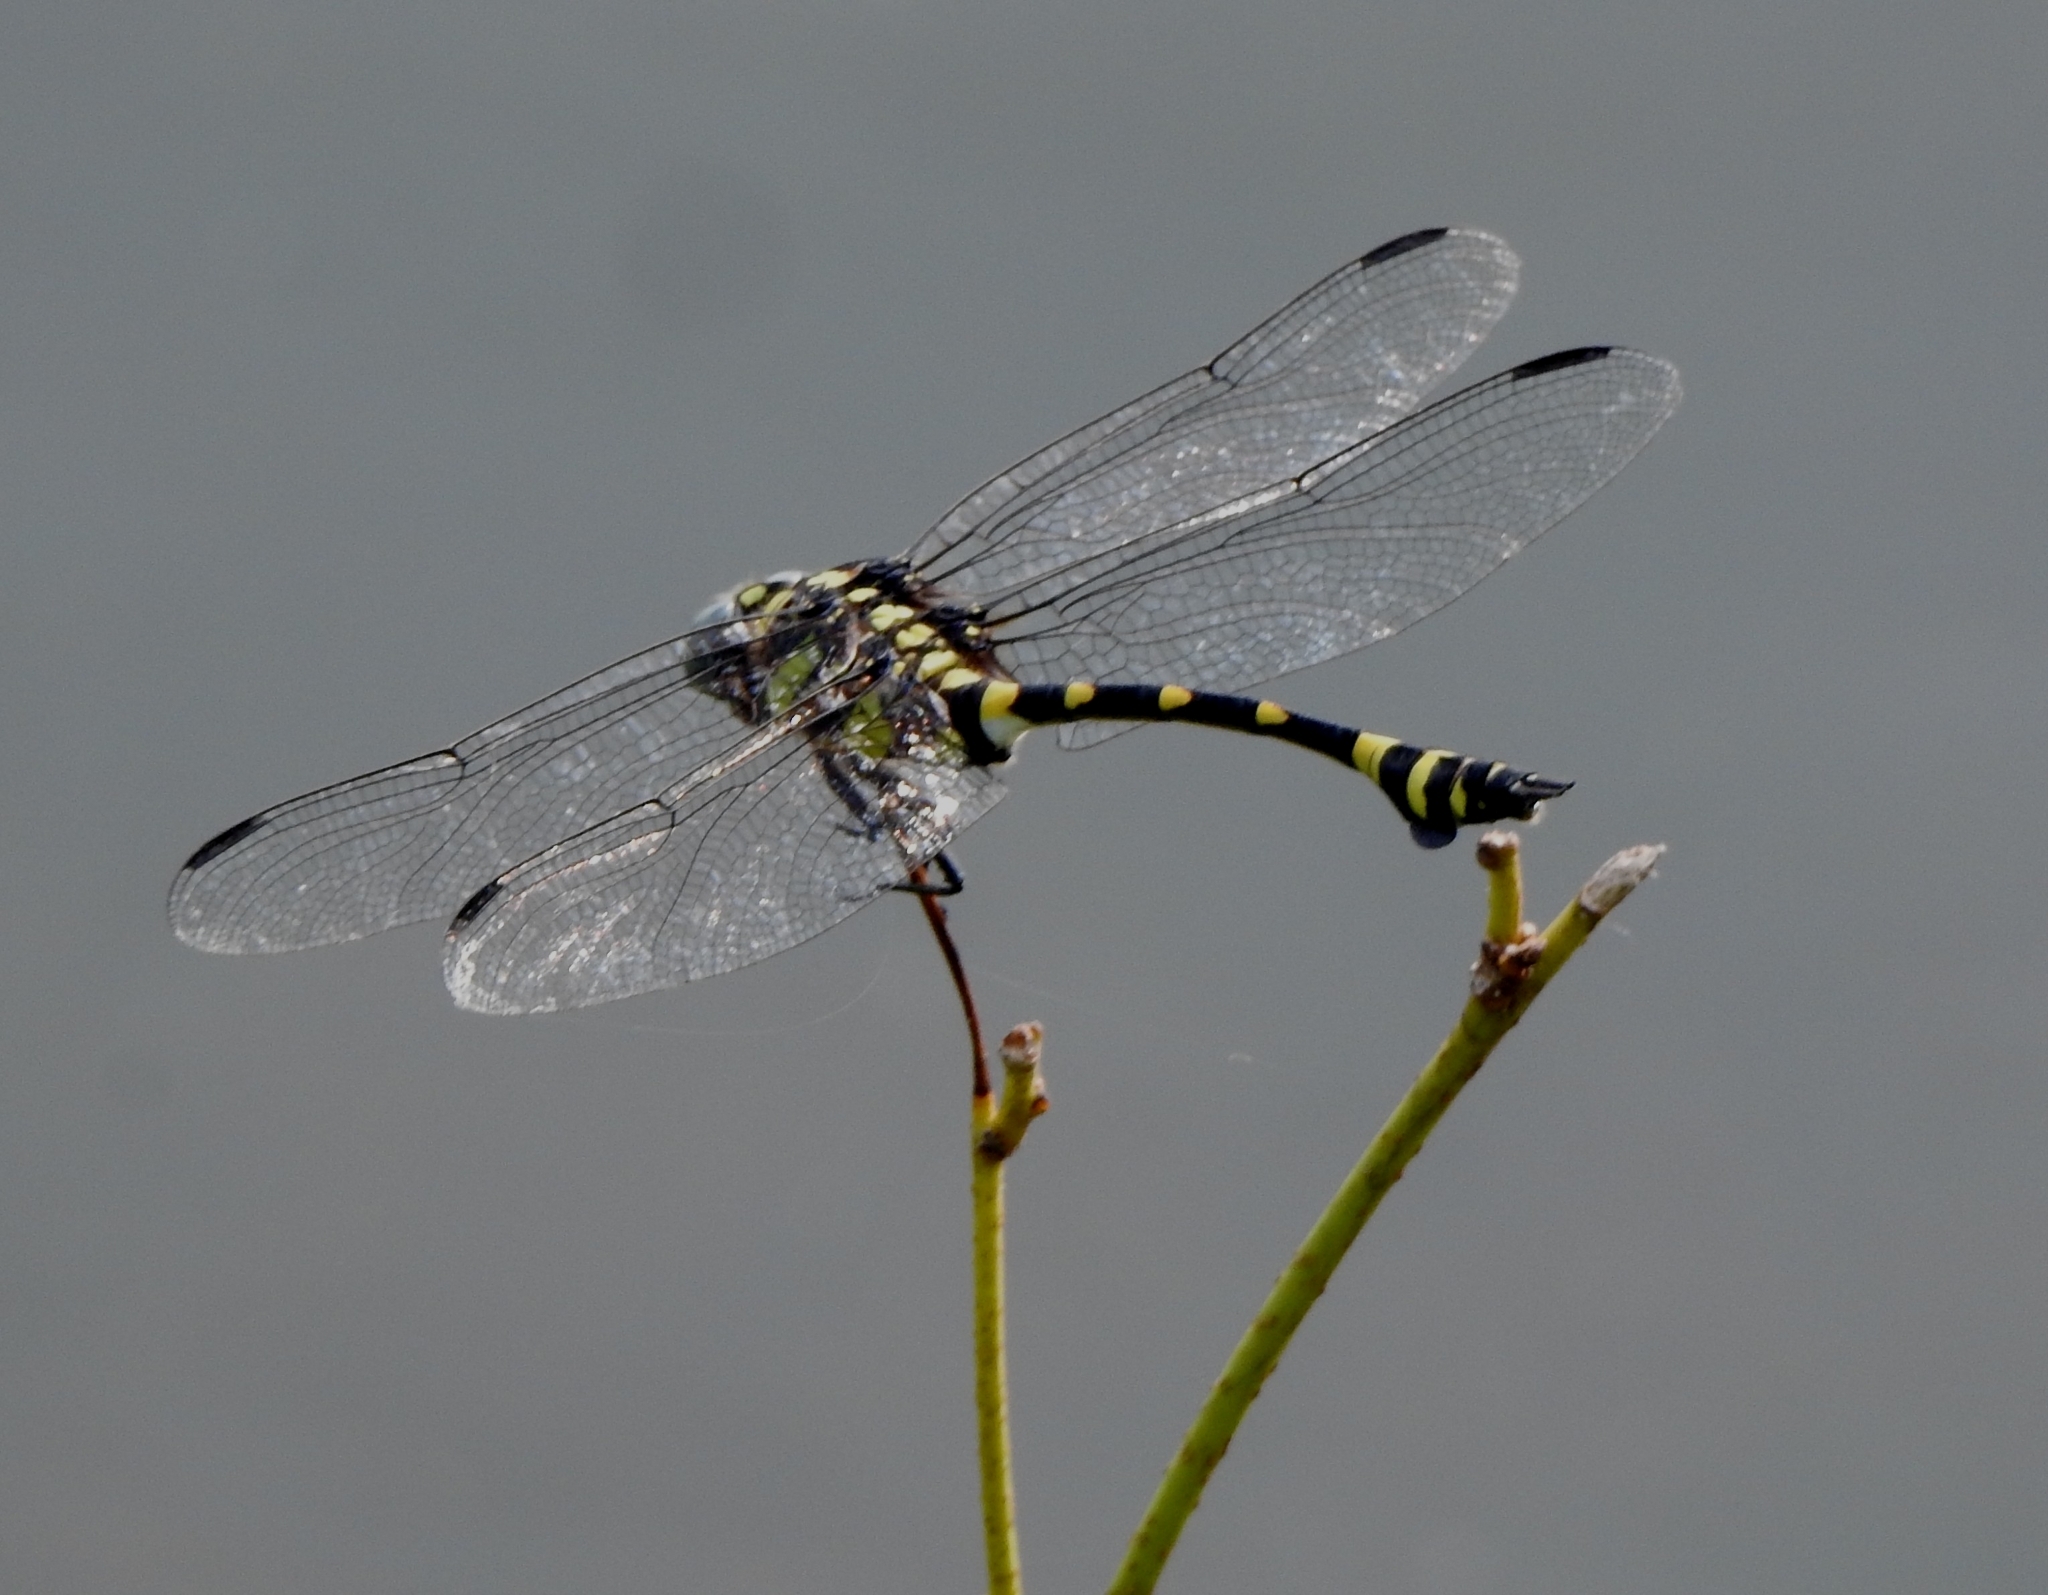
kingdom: Animalia
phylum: Arthropoda
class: Insecta
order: Odonata
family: Gomphidae
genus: Ictinogomphus
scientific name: Ictinogomphus rapax
